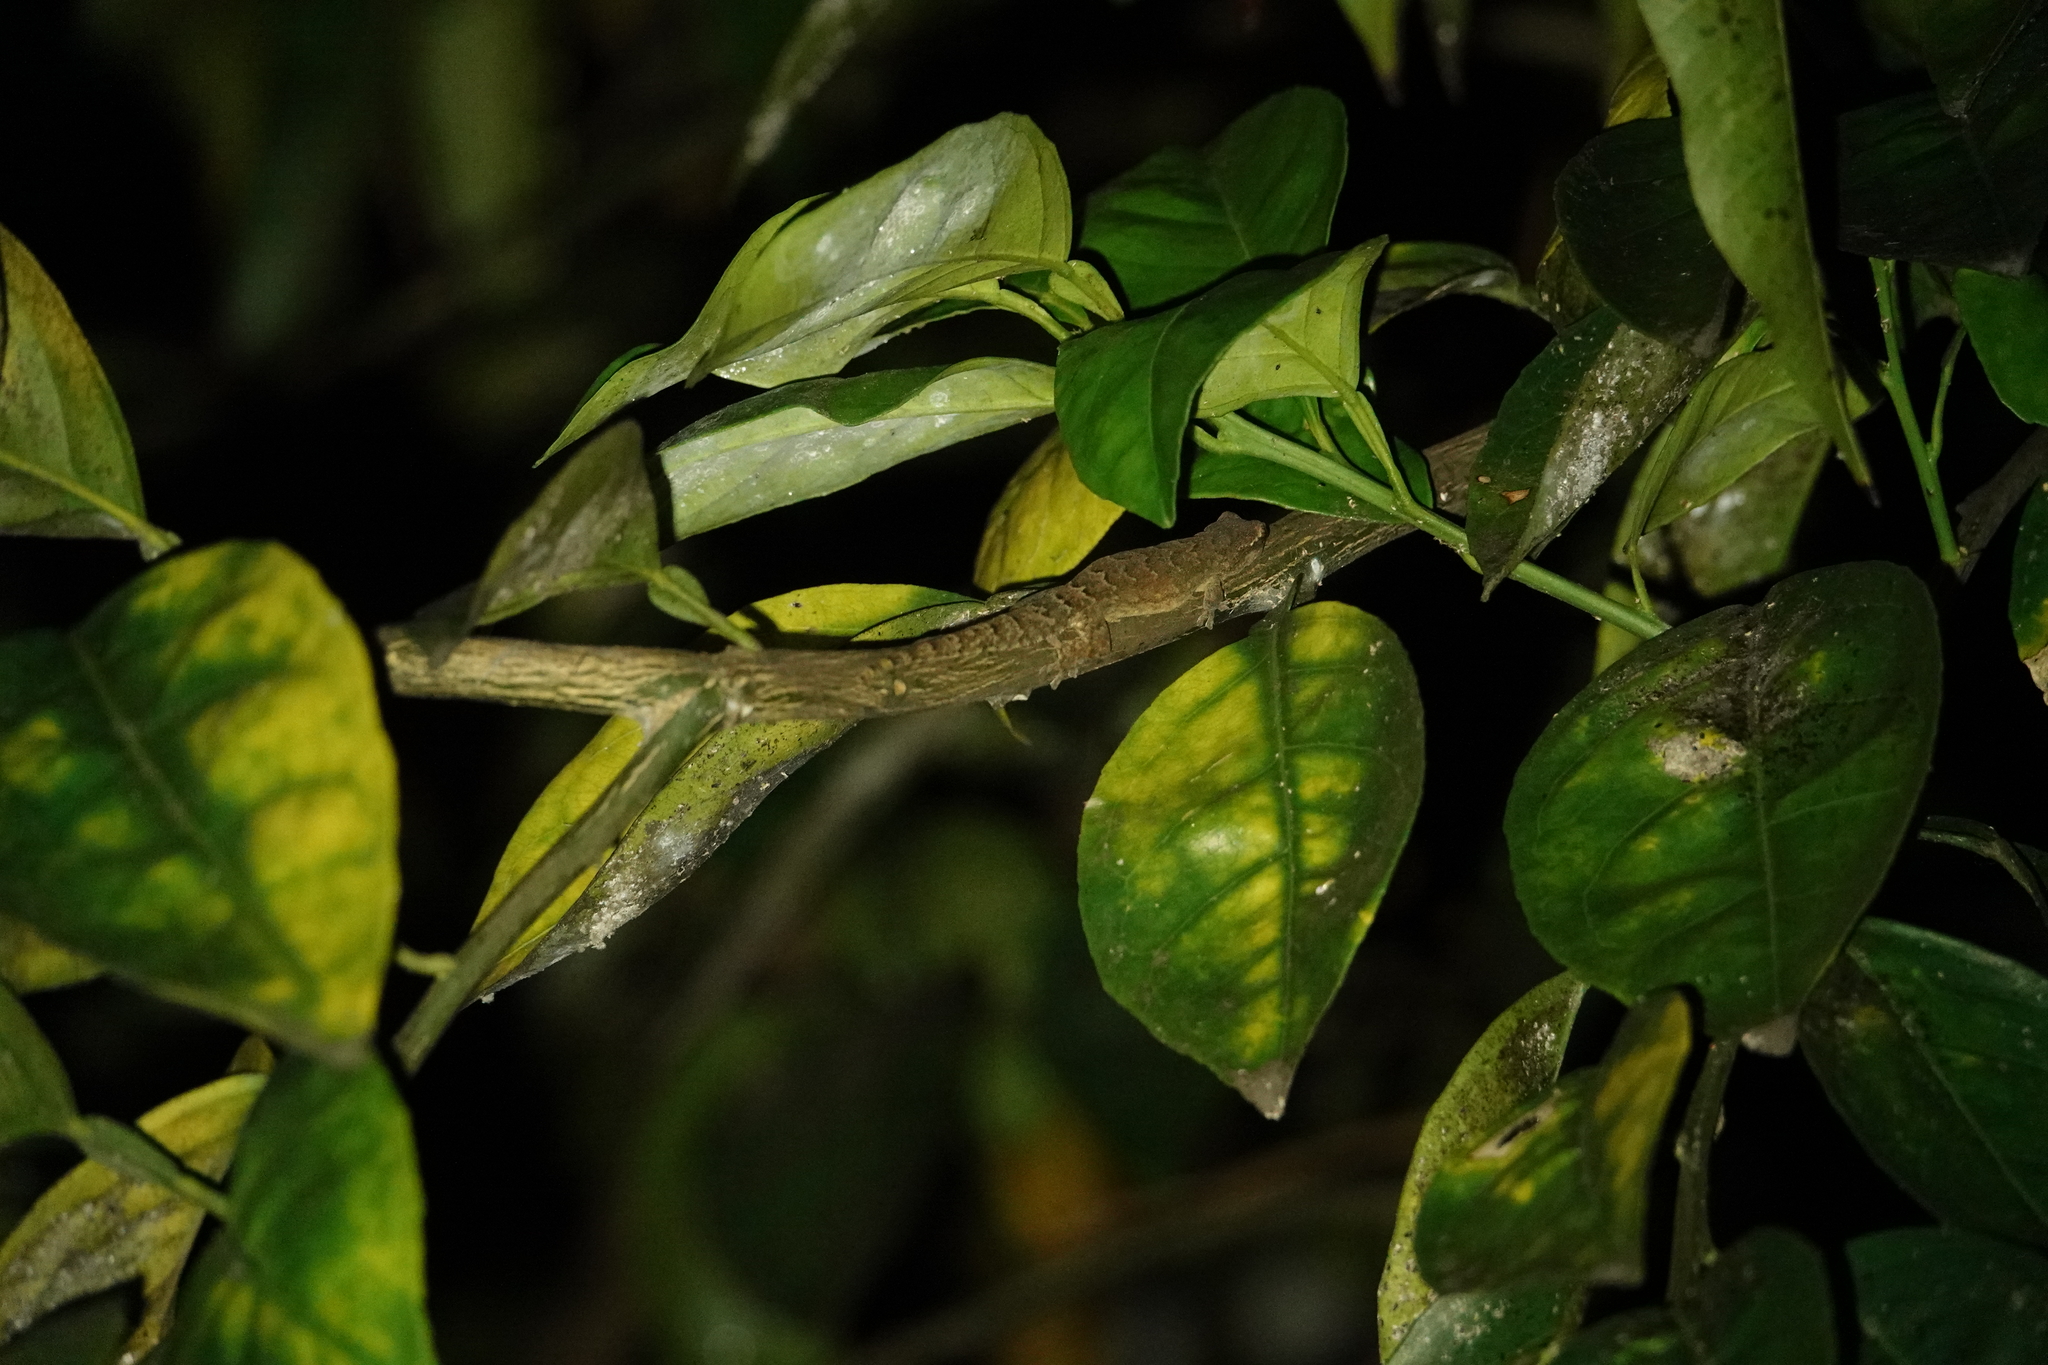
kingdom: Animalia
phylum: Chordata
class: Squamata
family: Gekkonidae
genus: Lepidodactylus
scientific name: Lepidodactylus lugubris
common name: Mourning gecko
